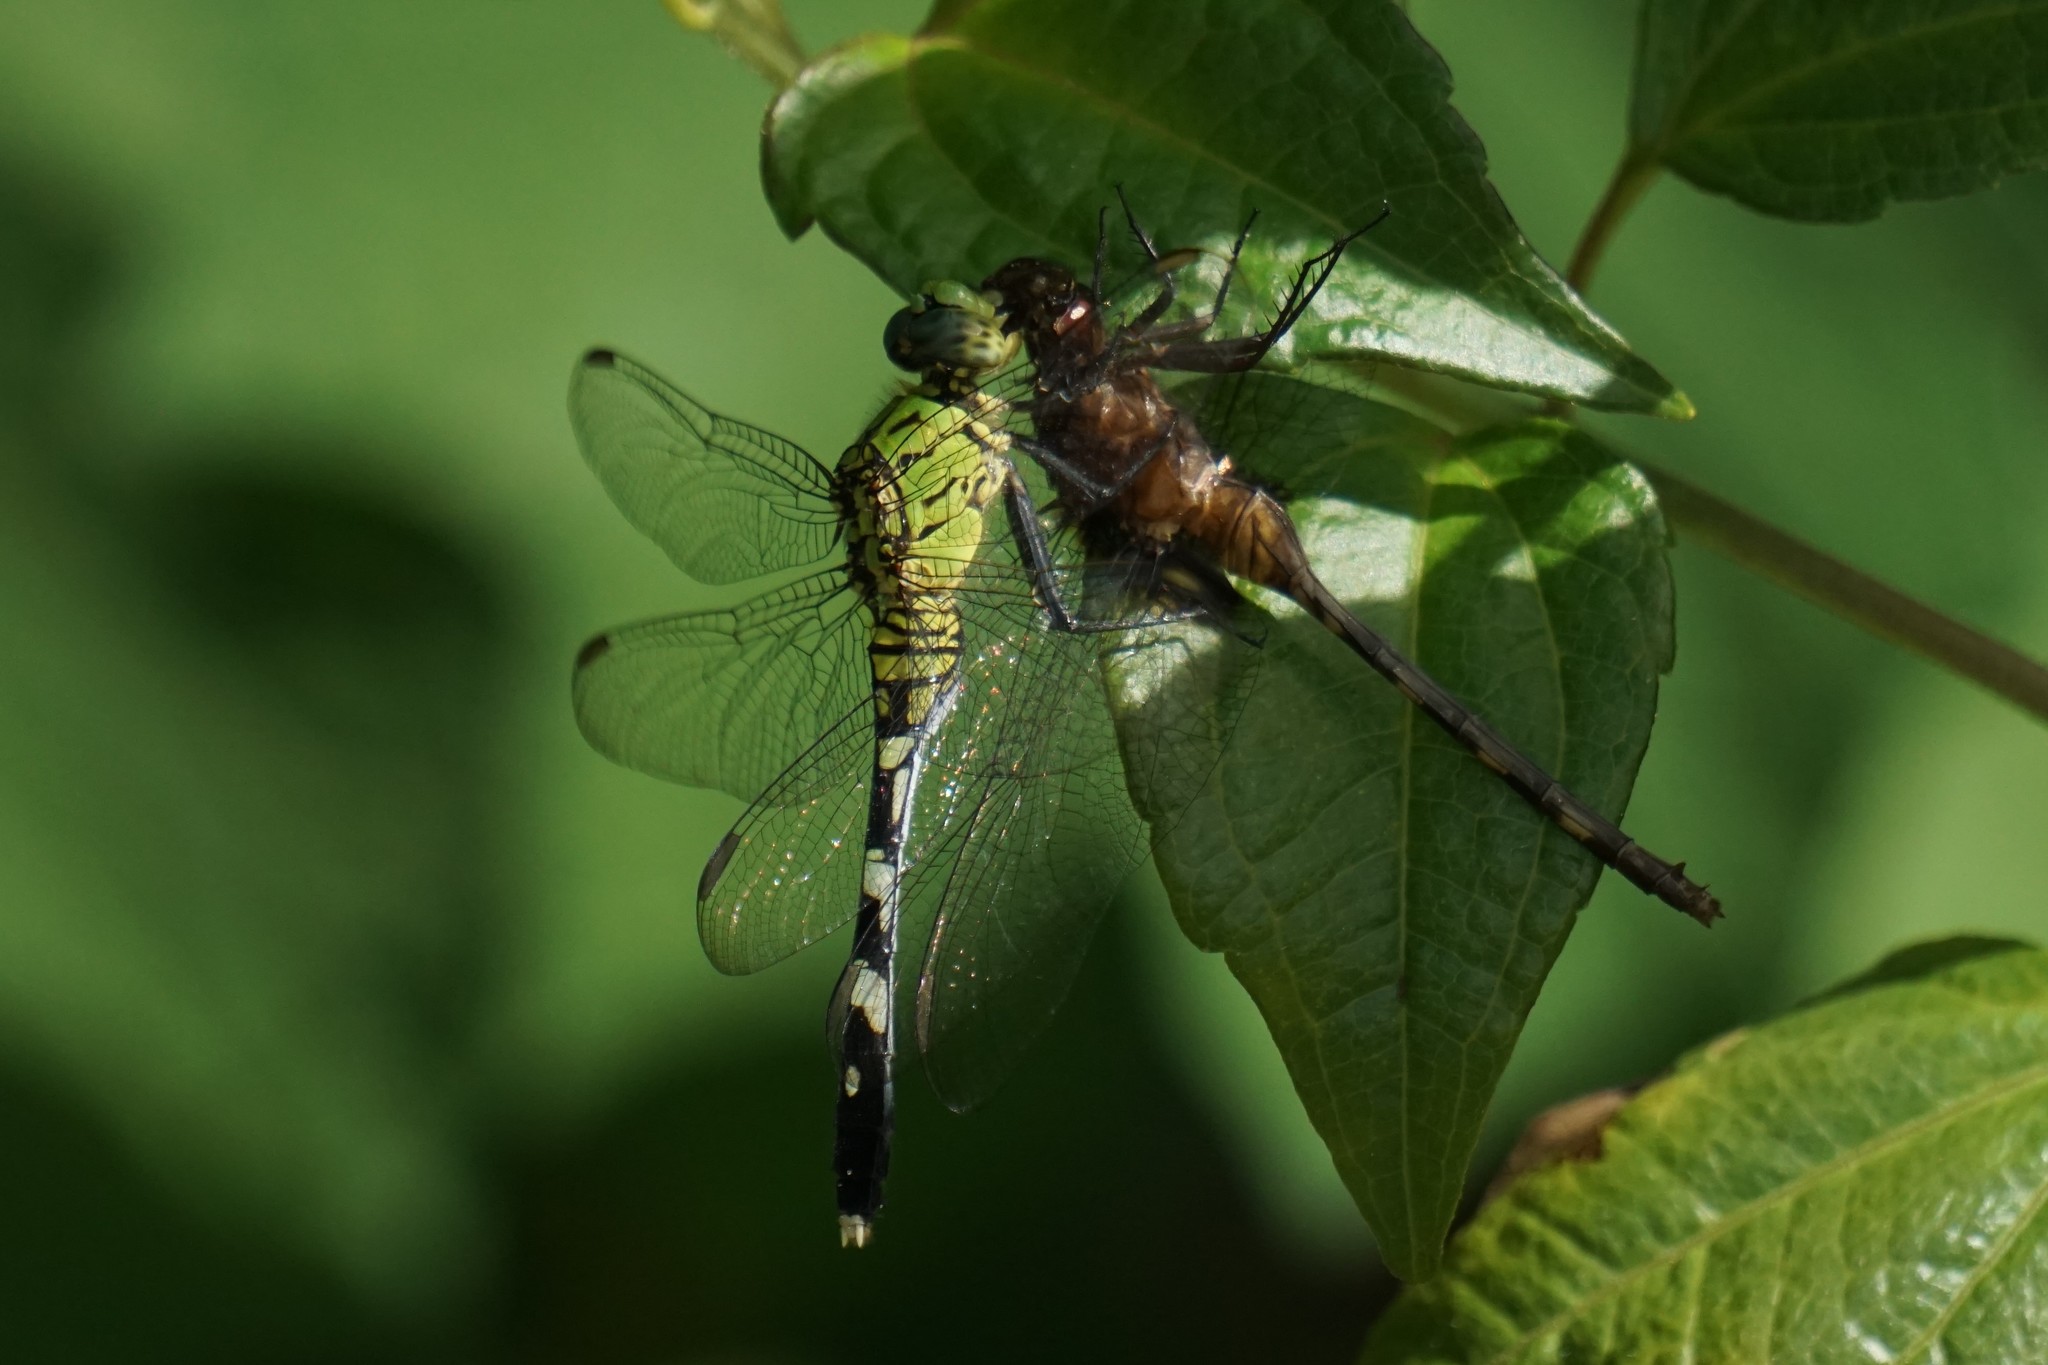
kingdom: Animalia
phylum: Arthropoda
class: Insecta
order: Odonata
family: Libellulidae
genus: Erythemis
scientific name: Erythemis simplicicollis
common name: Eastern pondhawk
